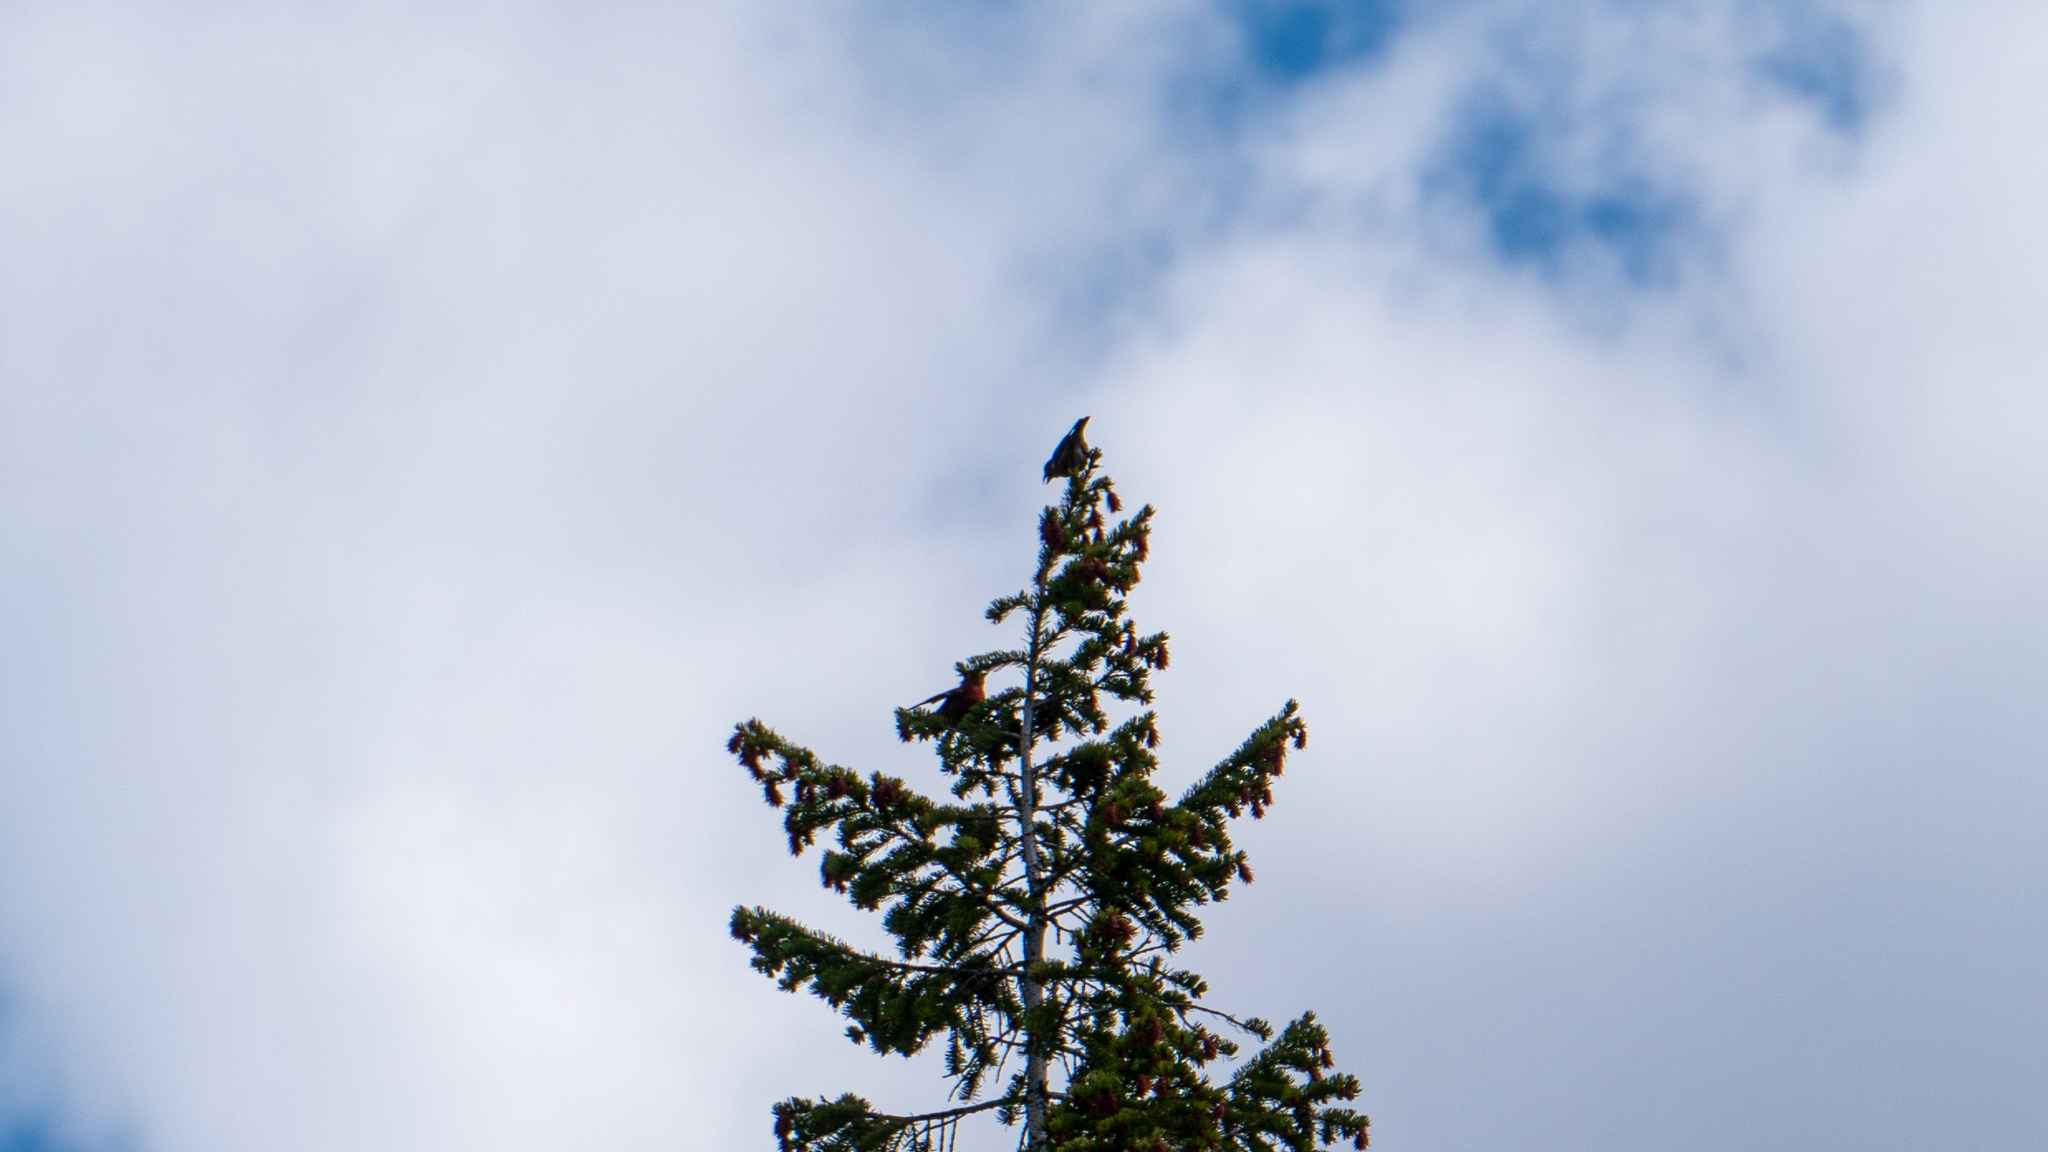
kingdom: Animalia
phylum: Chordata
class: Aves
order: Passeriformes
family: Fringillidae
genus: Loxia
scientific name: Loxia leucoptera
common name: Two-barred crossbill
